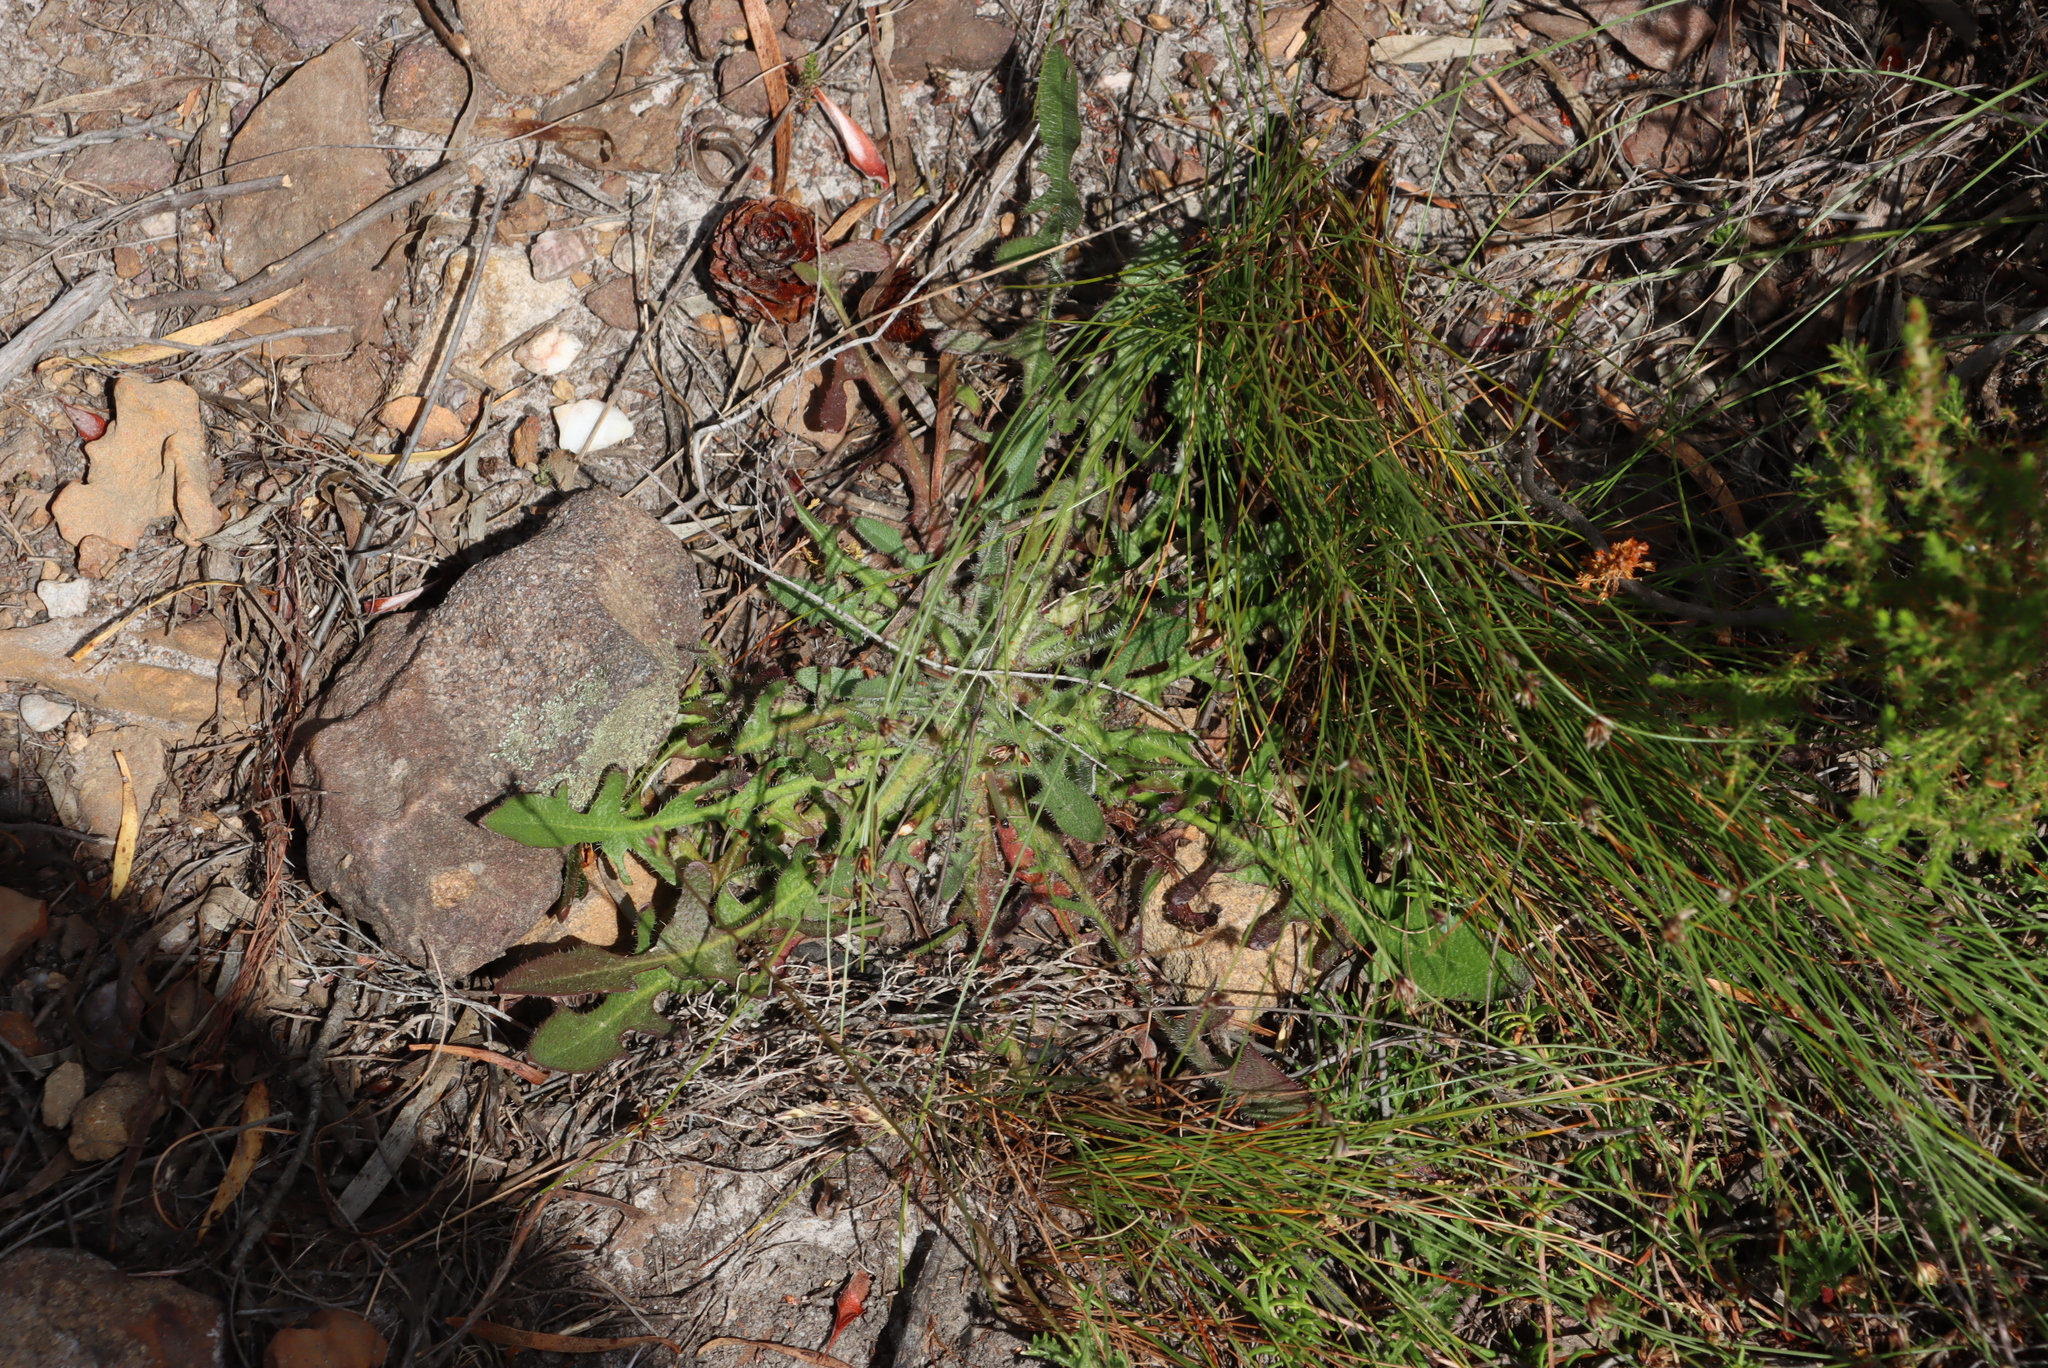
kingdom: Plantae
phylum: Tracheophyta
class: Magnoliopsida
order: Asterales
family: Asteraceae
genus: Hypochaeris
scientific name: Hypochaeris radicata
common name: Flatweed
